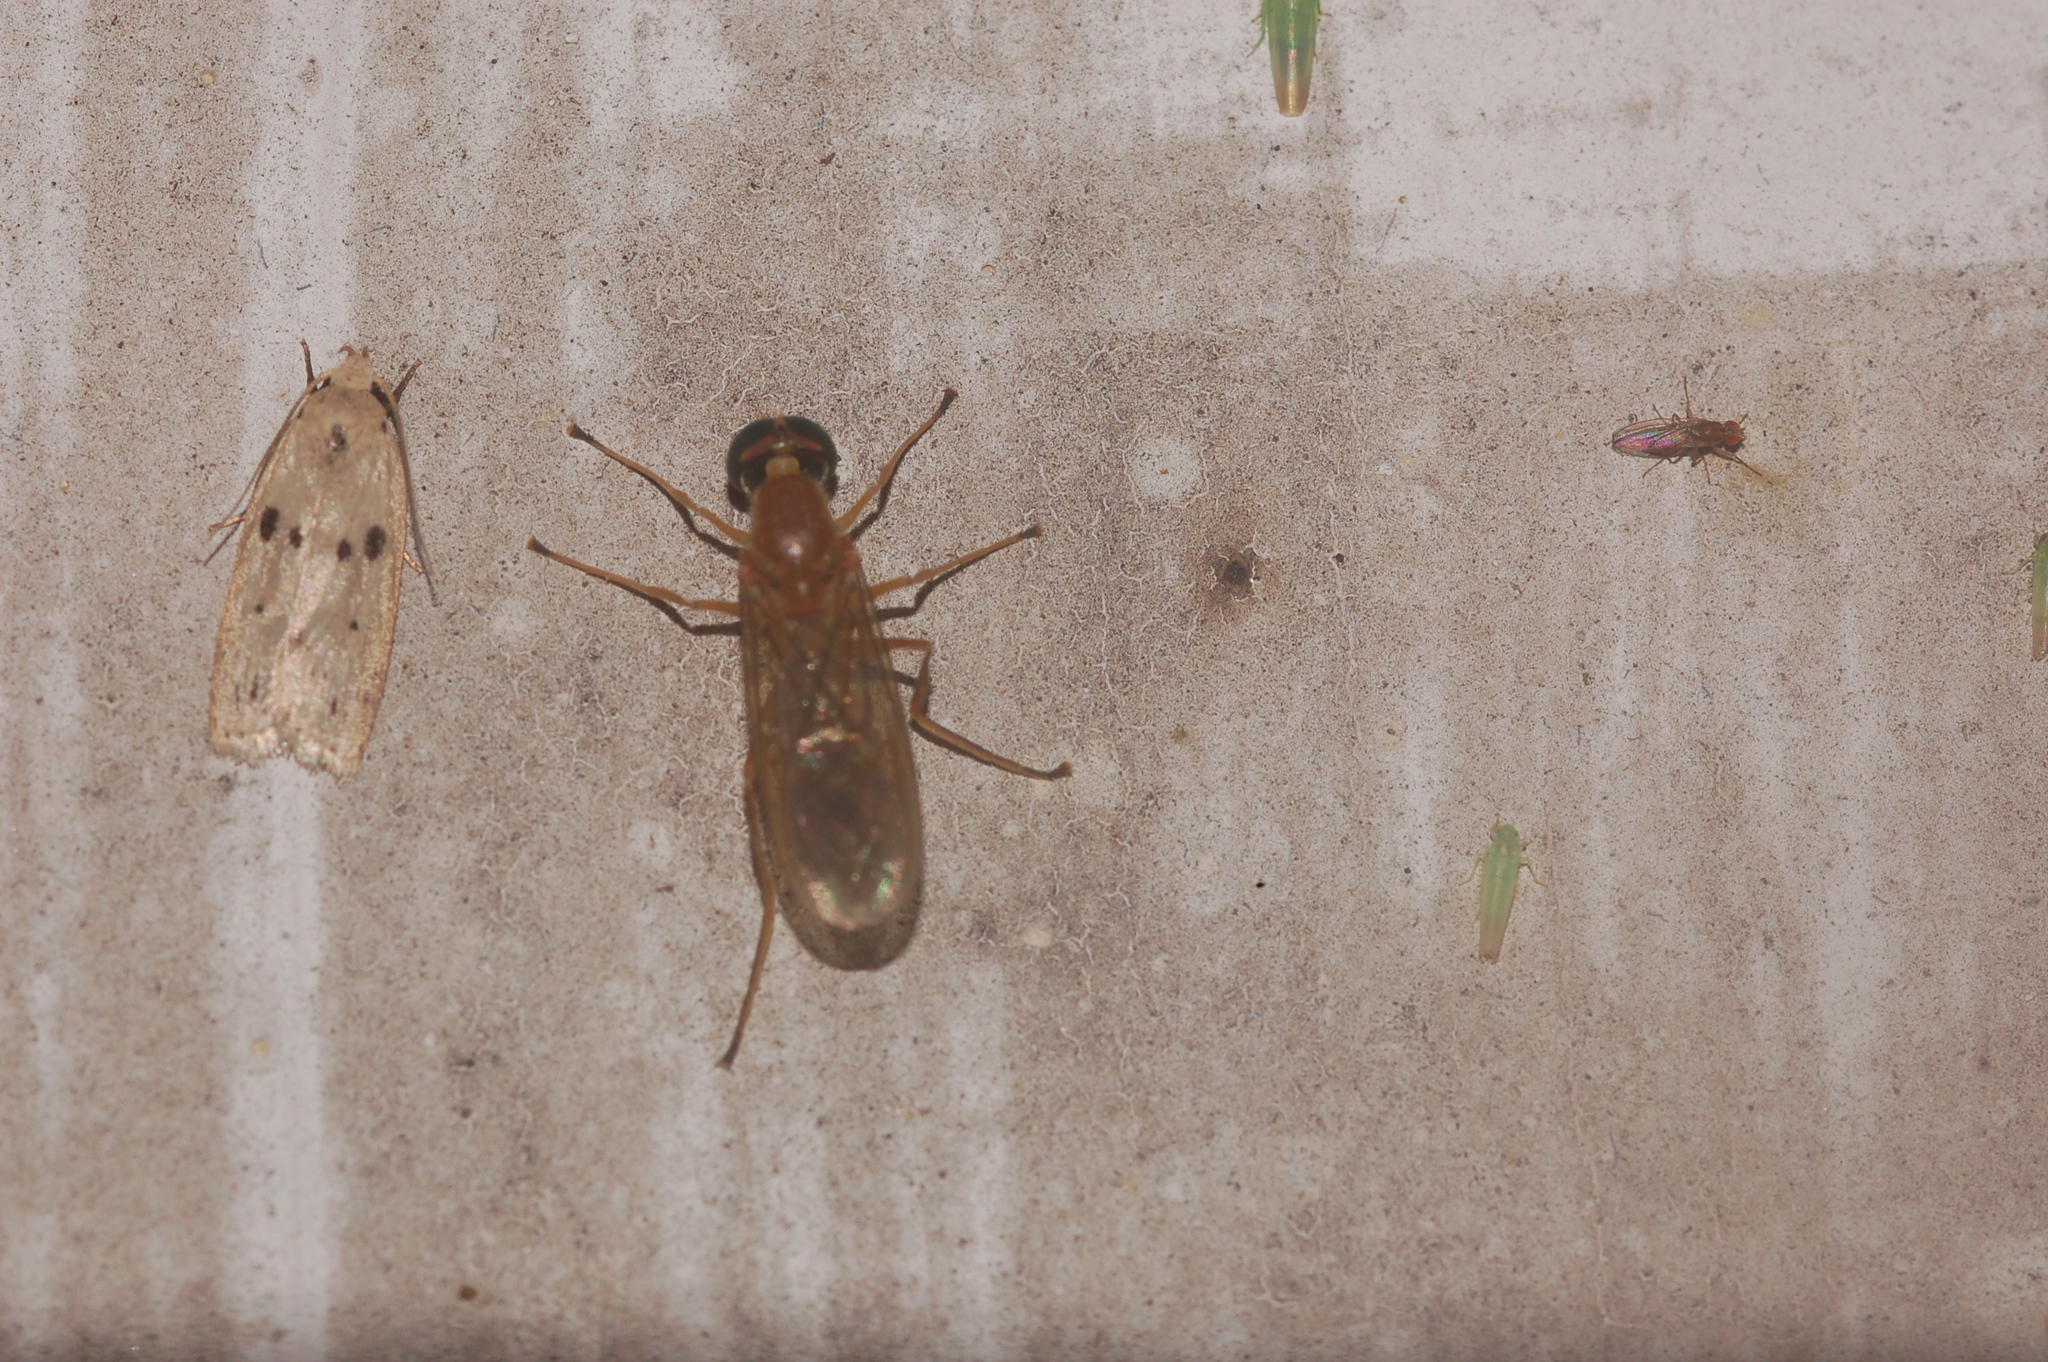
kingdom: Animalia
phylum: Arthropoda
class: Insecta
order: Diptera
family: Stratiomyidae
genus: Ptecticus
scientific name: Ptecticus trivittatus
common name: Compost fly
